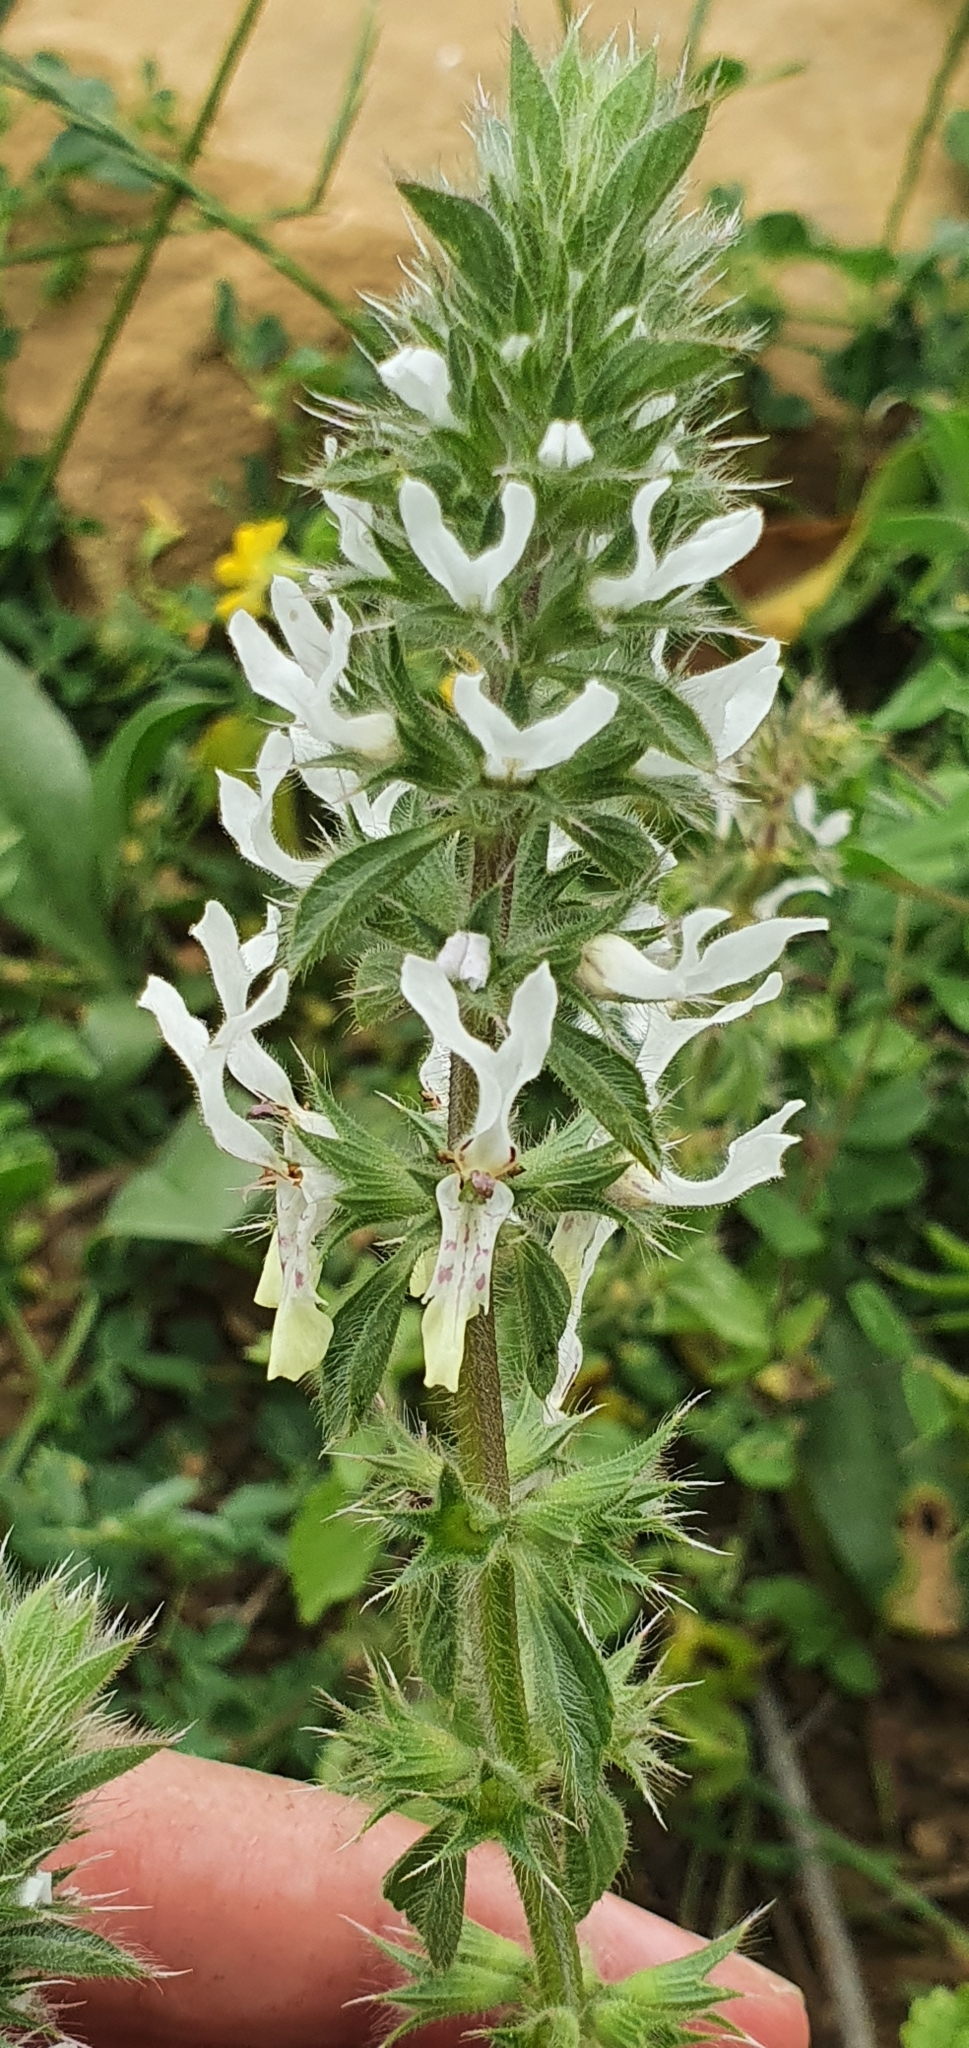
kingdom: Plantae
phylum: Tracheophyta
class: Magnoliopsida
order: Lamiales
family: Lamiaceae
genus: Stachys
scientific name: Stachys ocymastrum
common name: Italian hedgenettle
